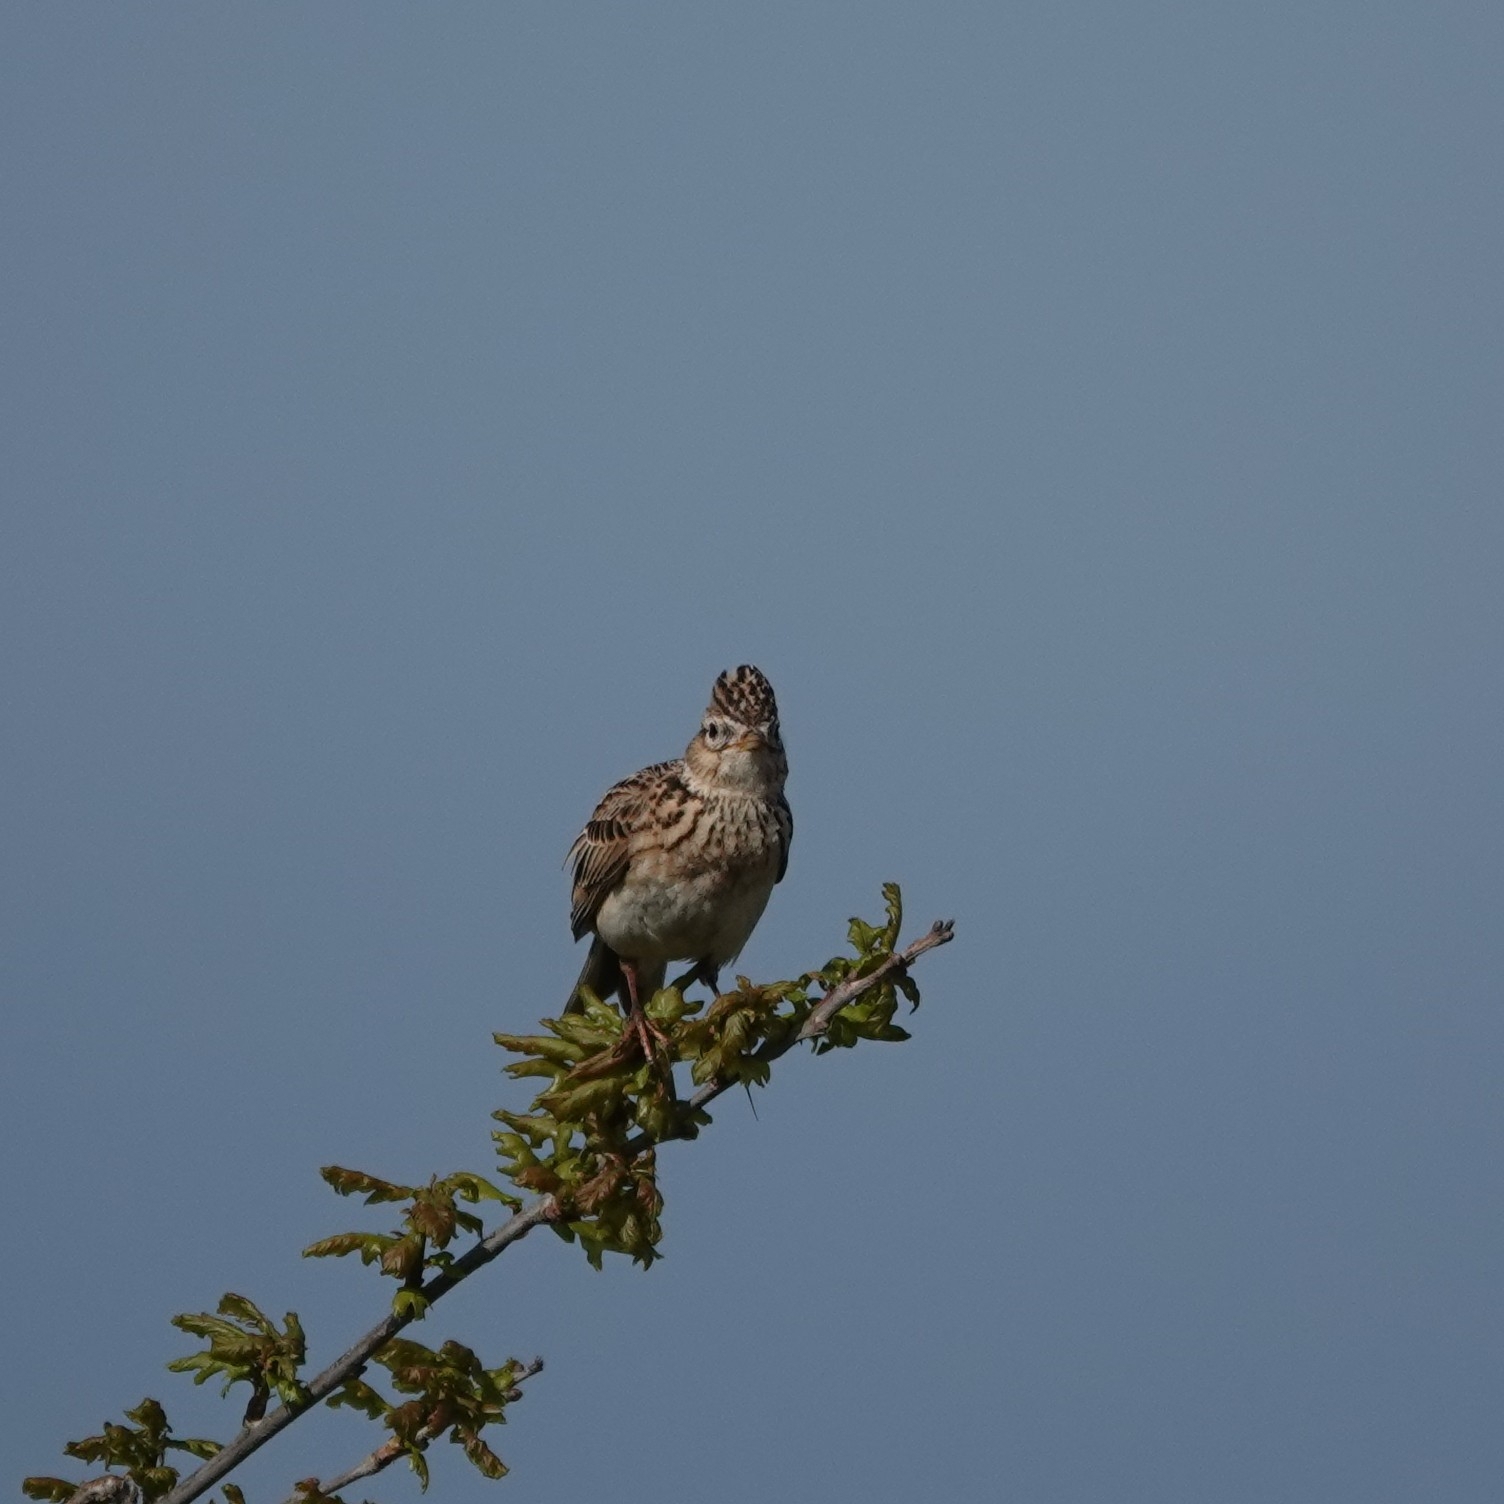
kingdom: Animalia
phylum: Chordata
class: Aves
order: Passeriformes
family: Alaudidae
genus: Alauda
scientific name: Alauda arvensis
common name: Eurasian skylark
